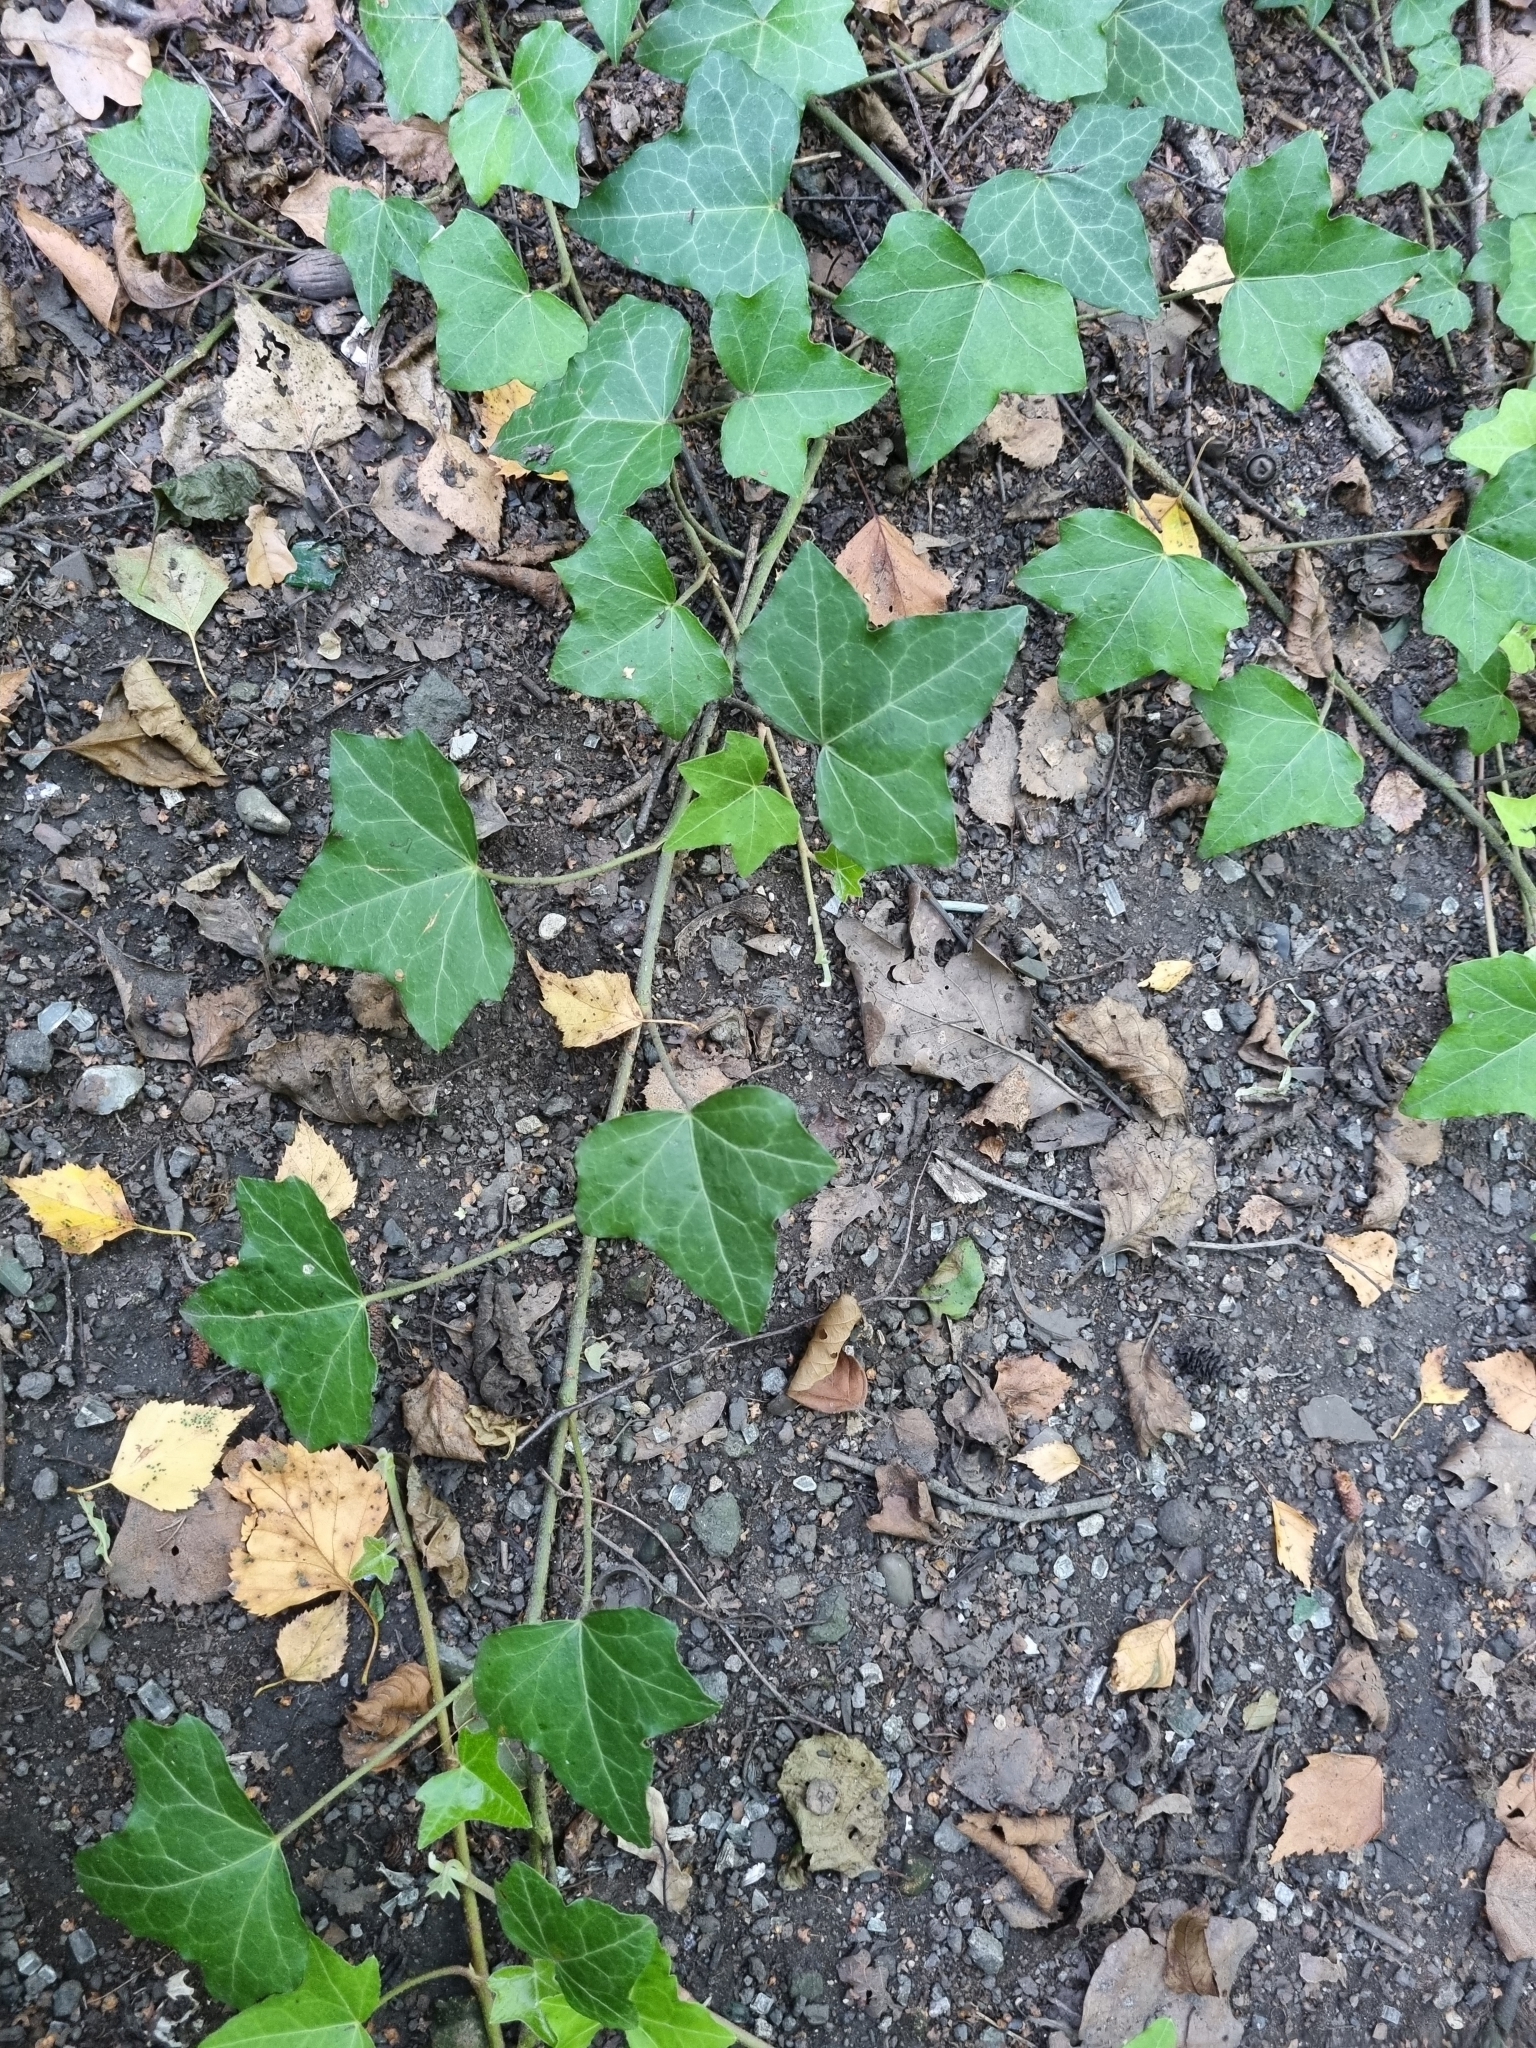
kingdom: Plantae
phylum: Tracheophyta
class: Magnoliopsida
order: Apiales
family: Araliaceae
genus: Hedera
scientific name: Hedera helix
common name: Ivy
